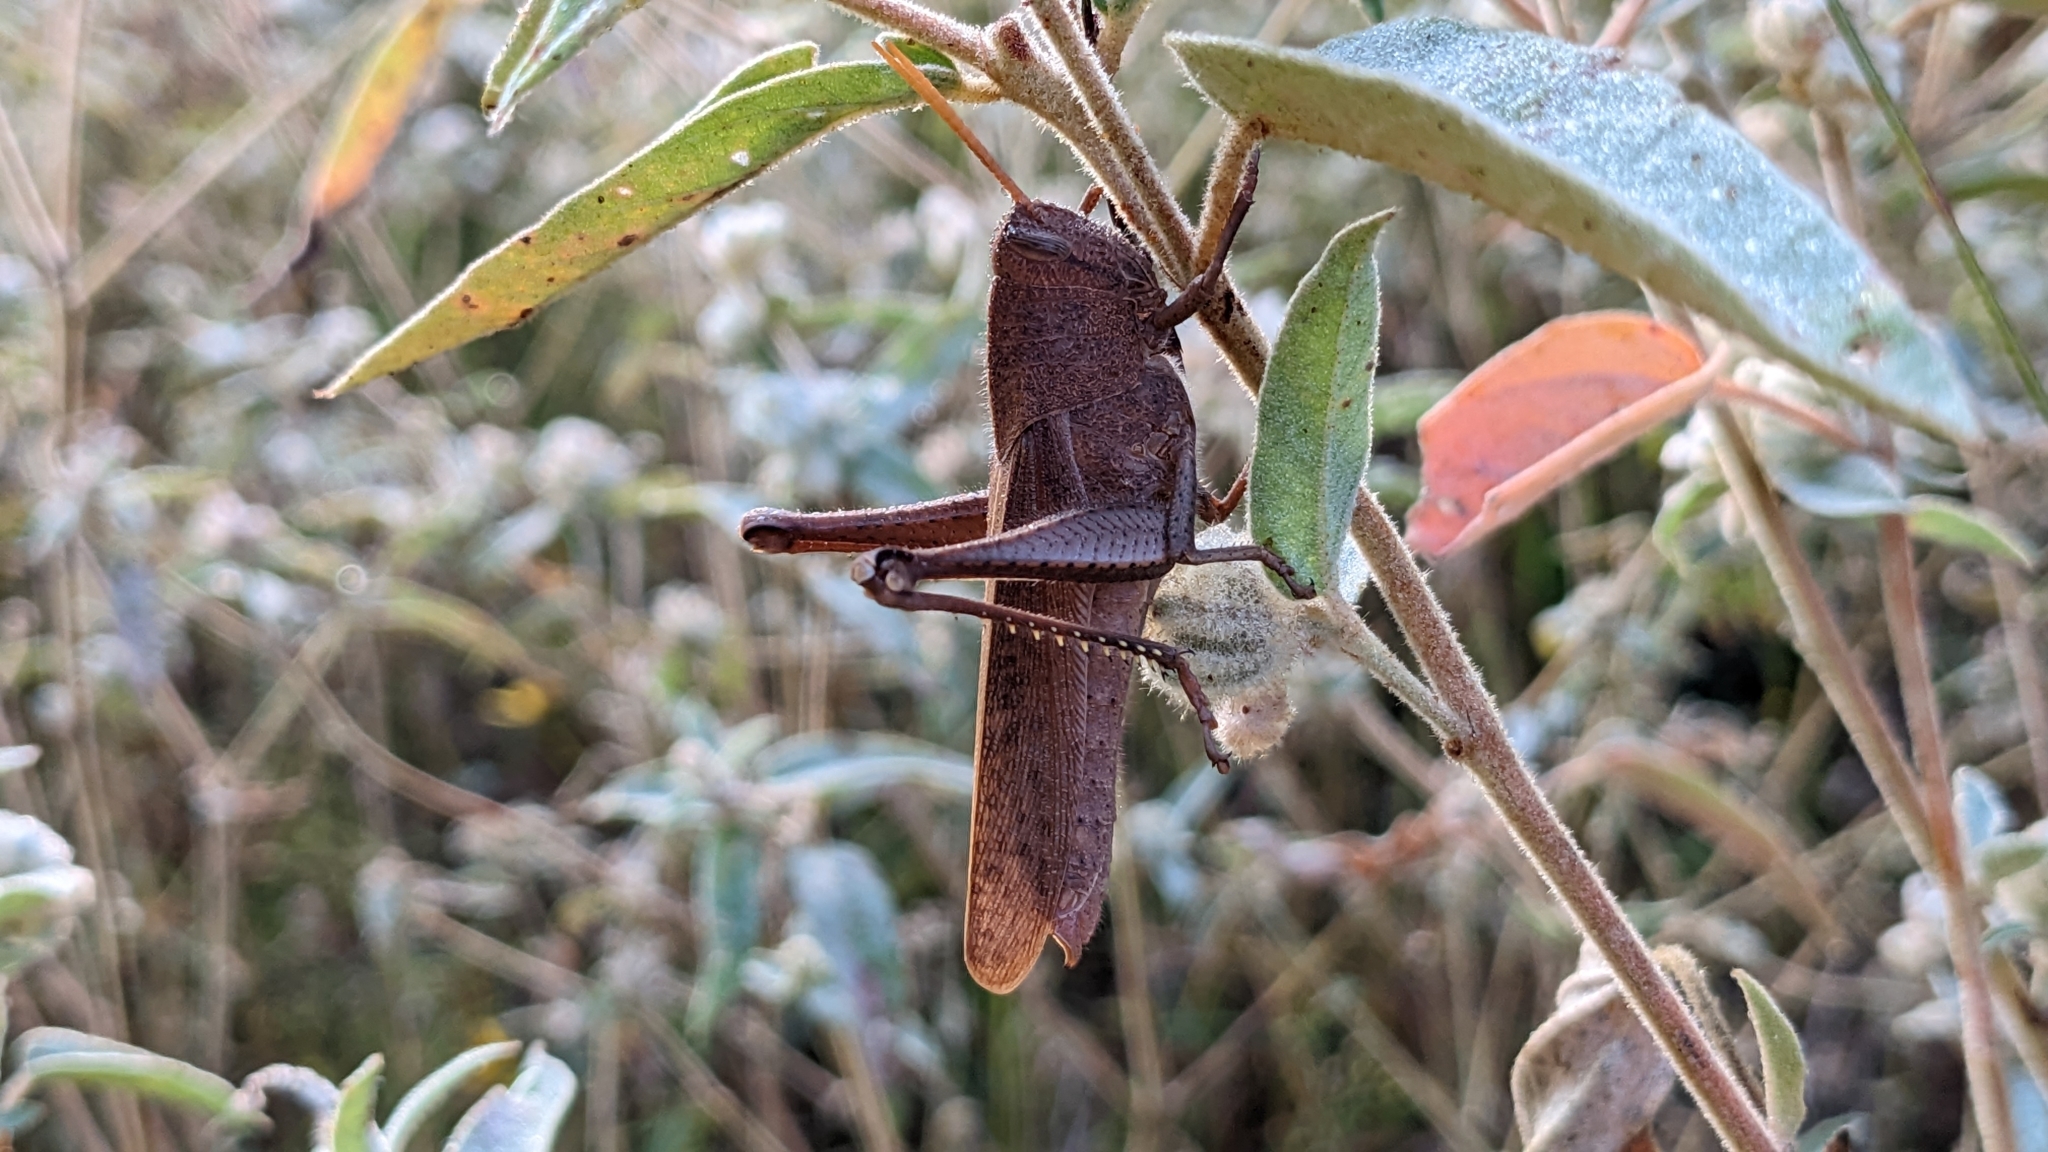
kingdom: Animalia
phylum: Arthropoda
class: Insecta
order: Orthoptera
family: Acrididae
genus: Schistocerca
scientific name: Schistocerca damnifica
